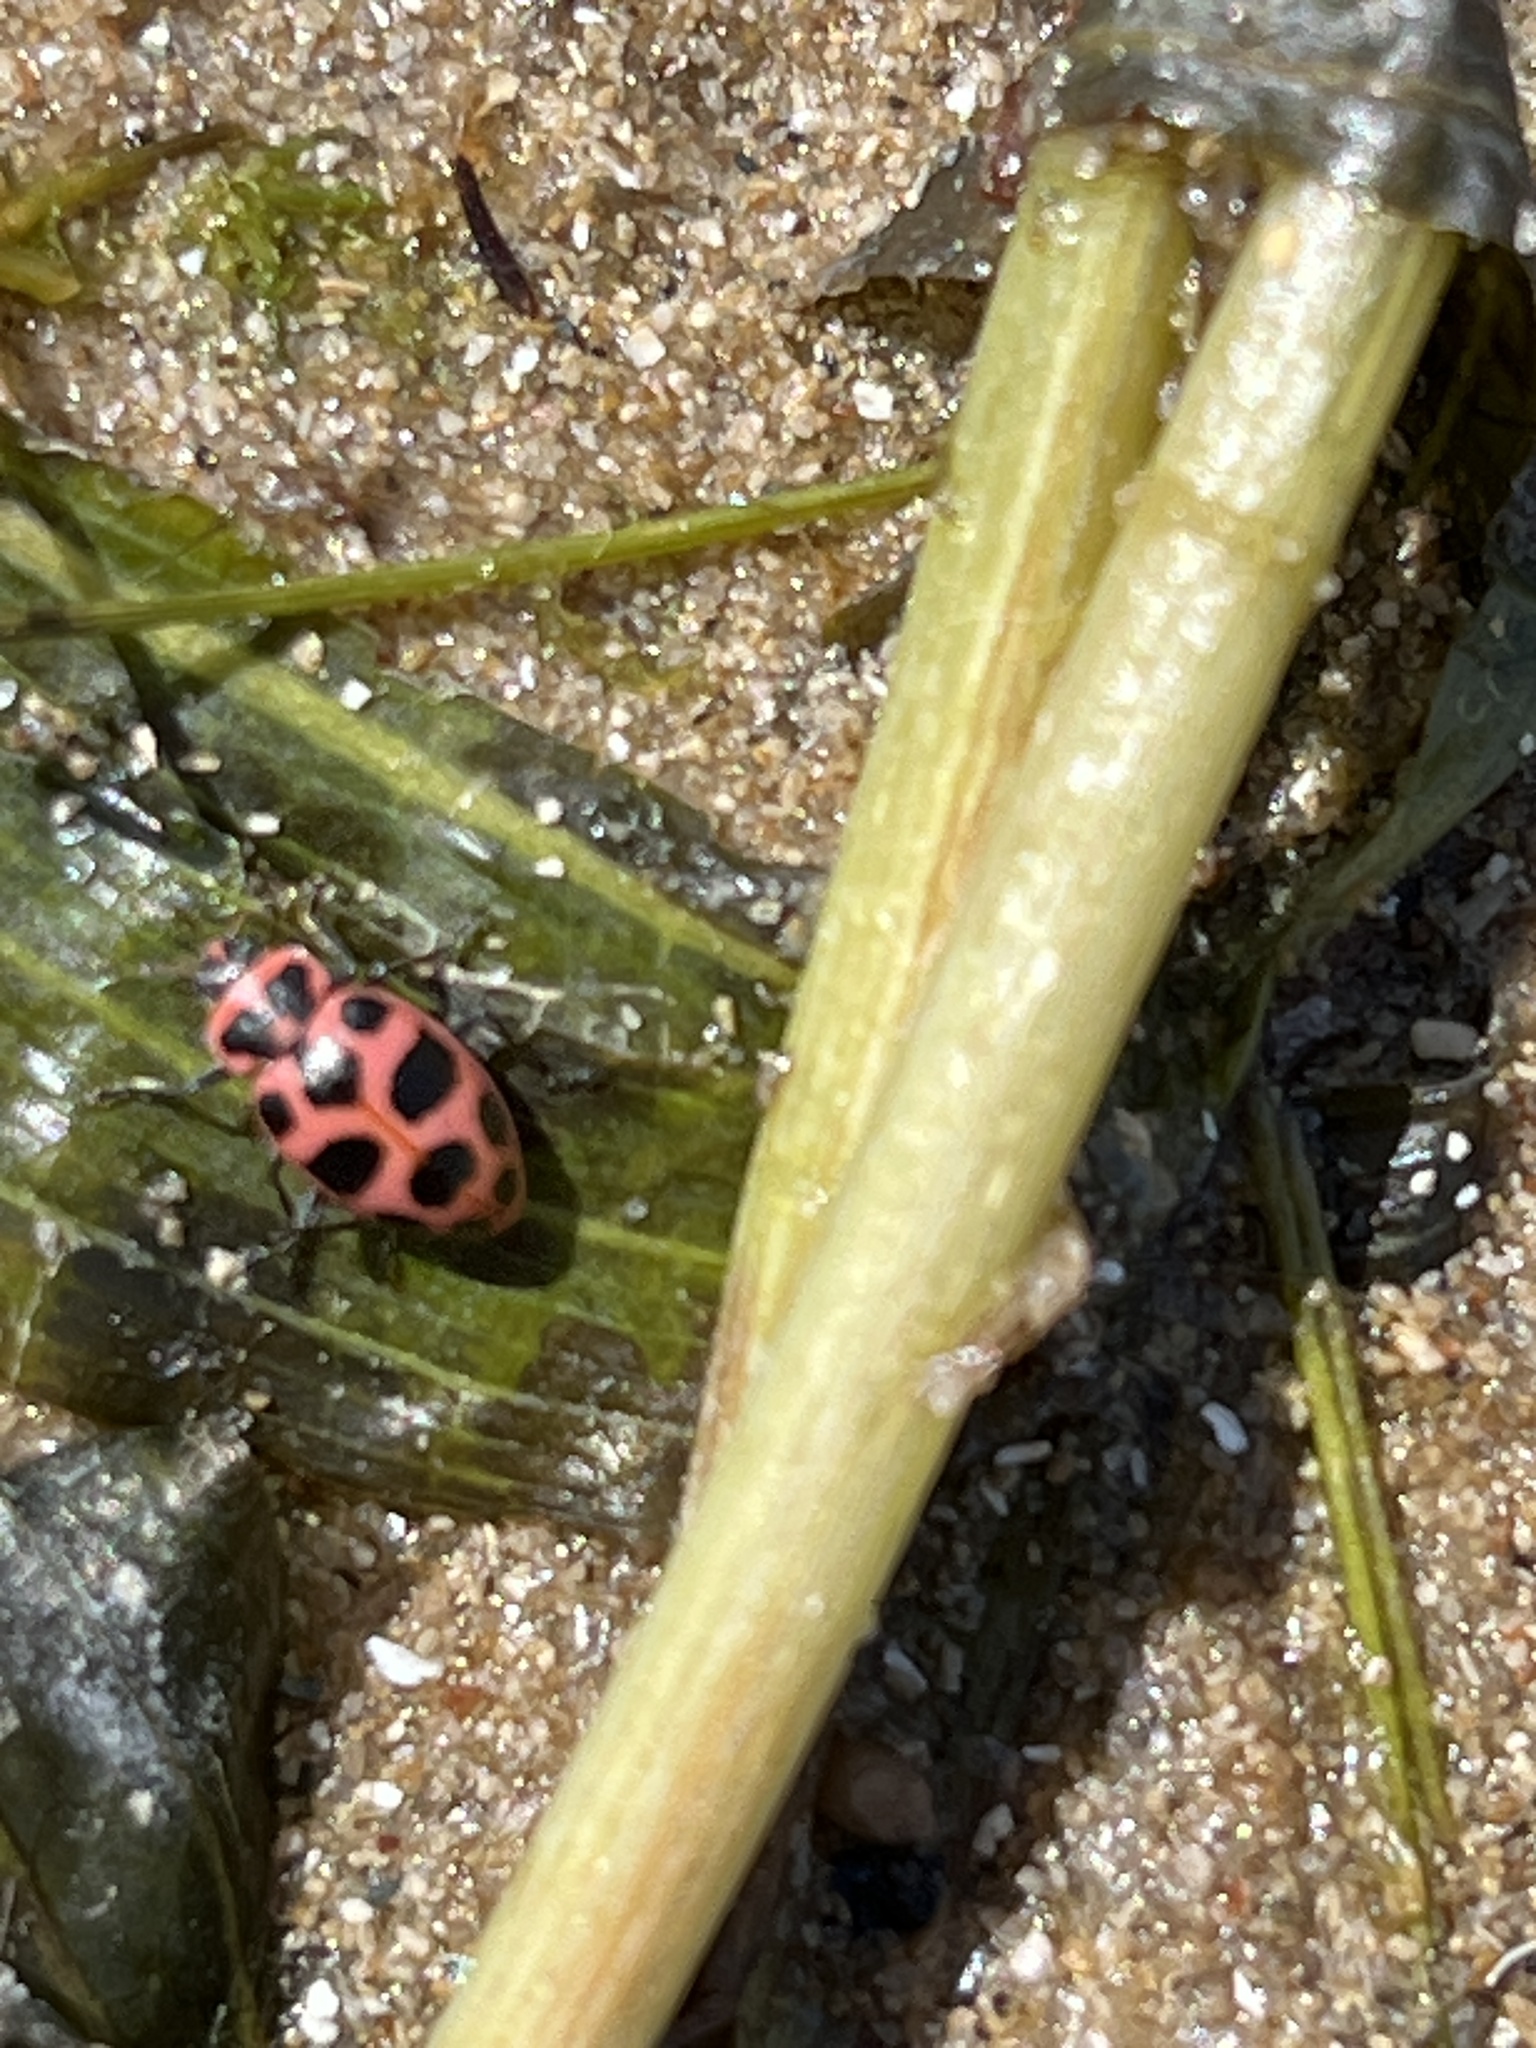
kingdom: Animalia
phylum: Arthropoda
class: Insecta
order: Coleoptera
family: Coccinellidae
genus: Coleomegilla
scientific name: Coleomegilla maculata
